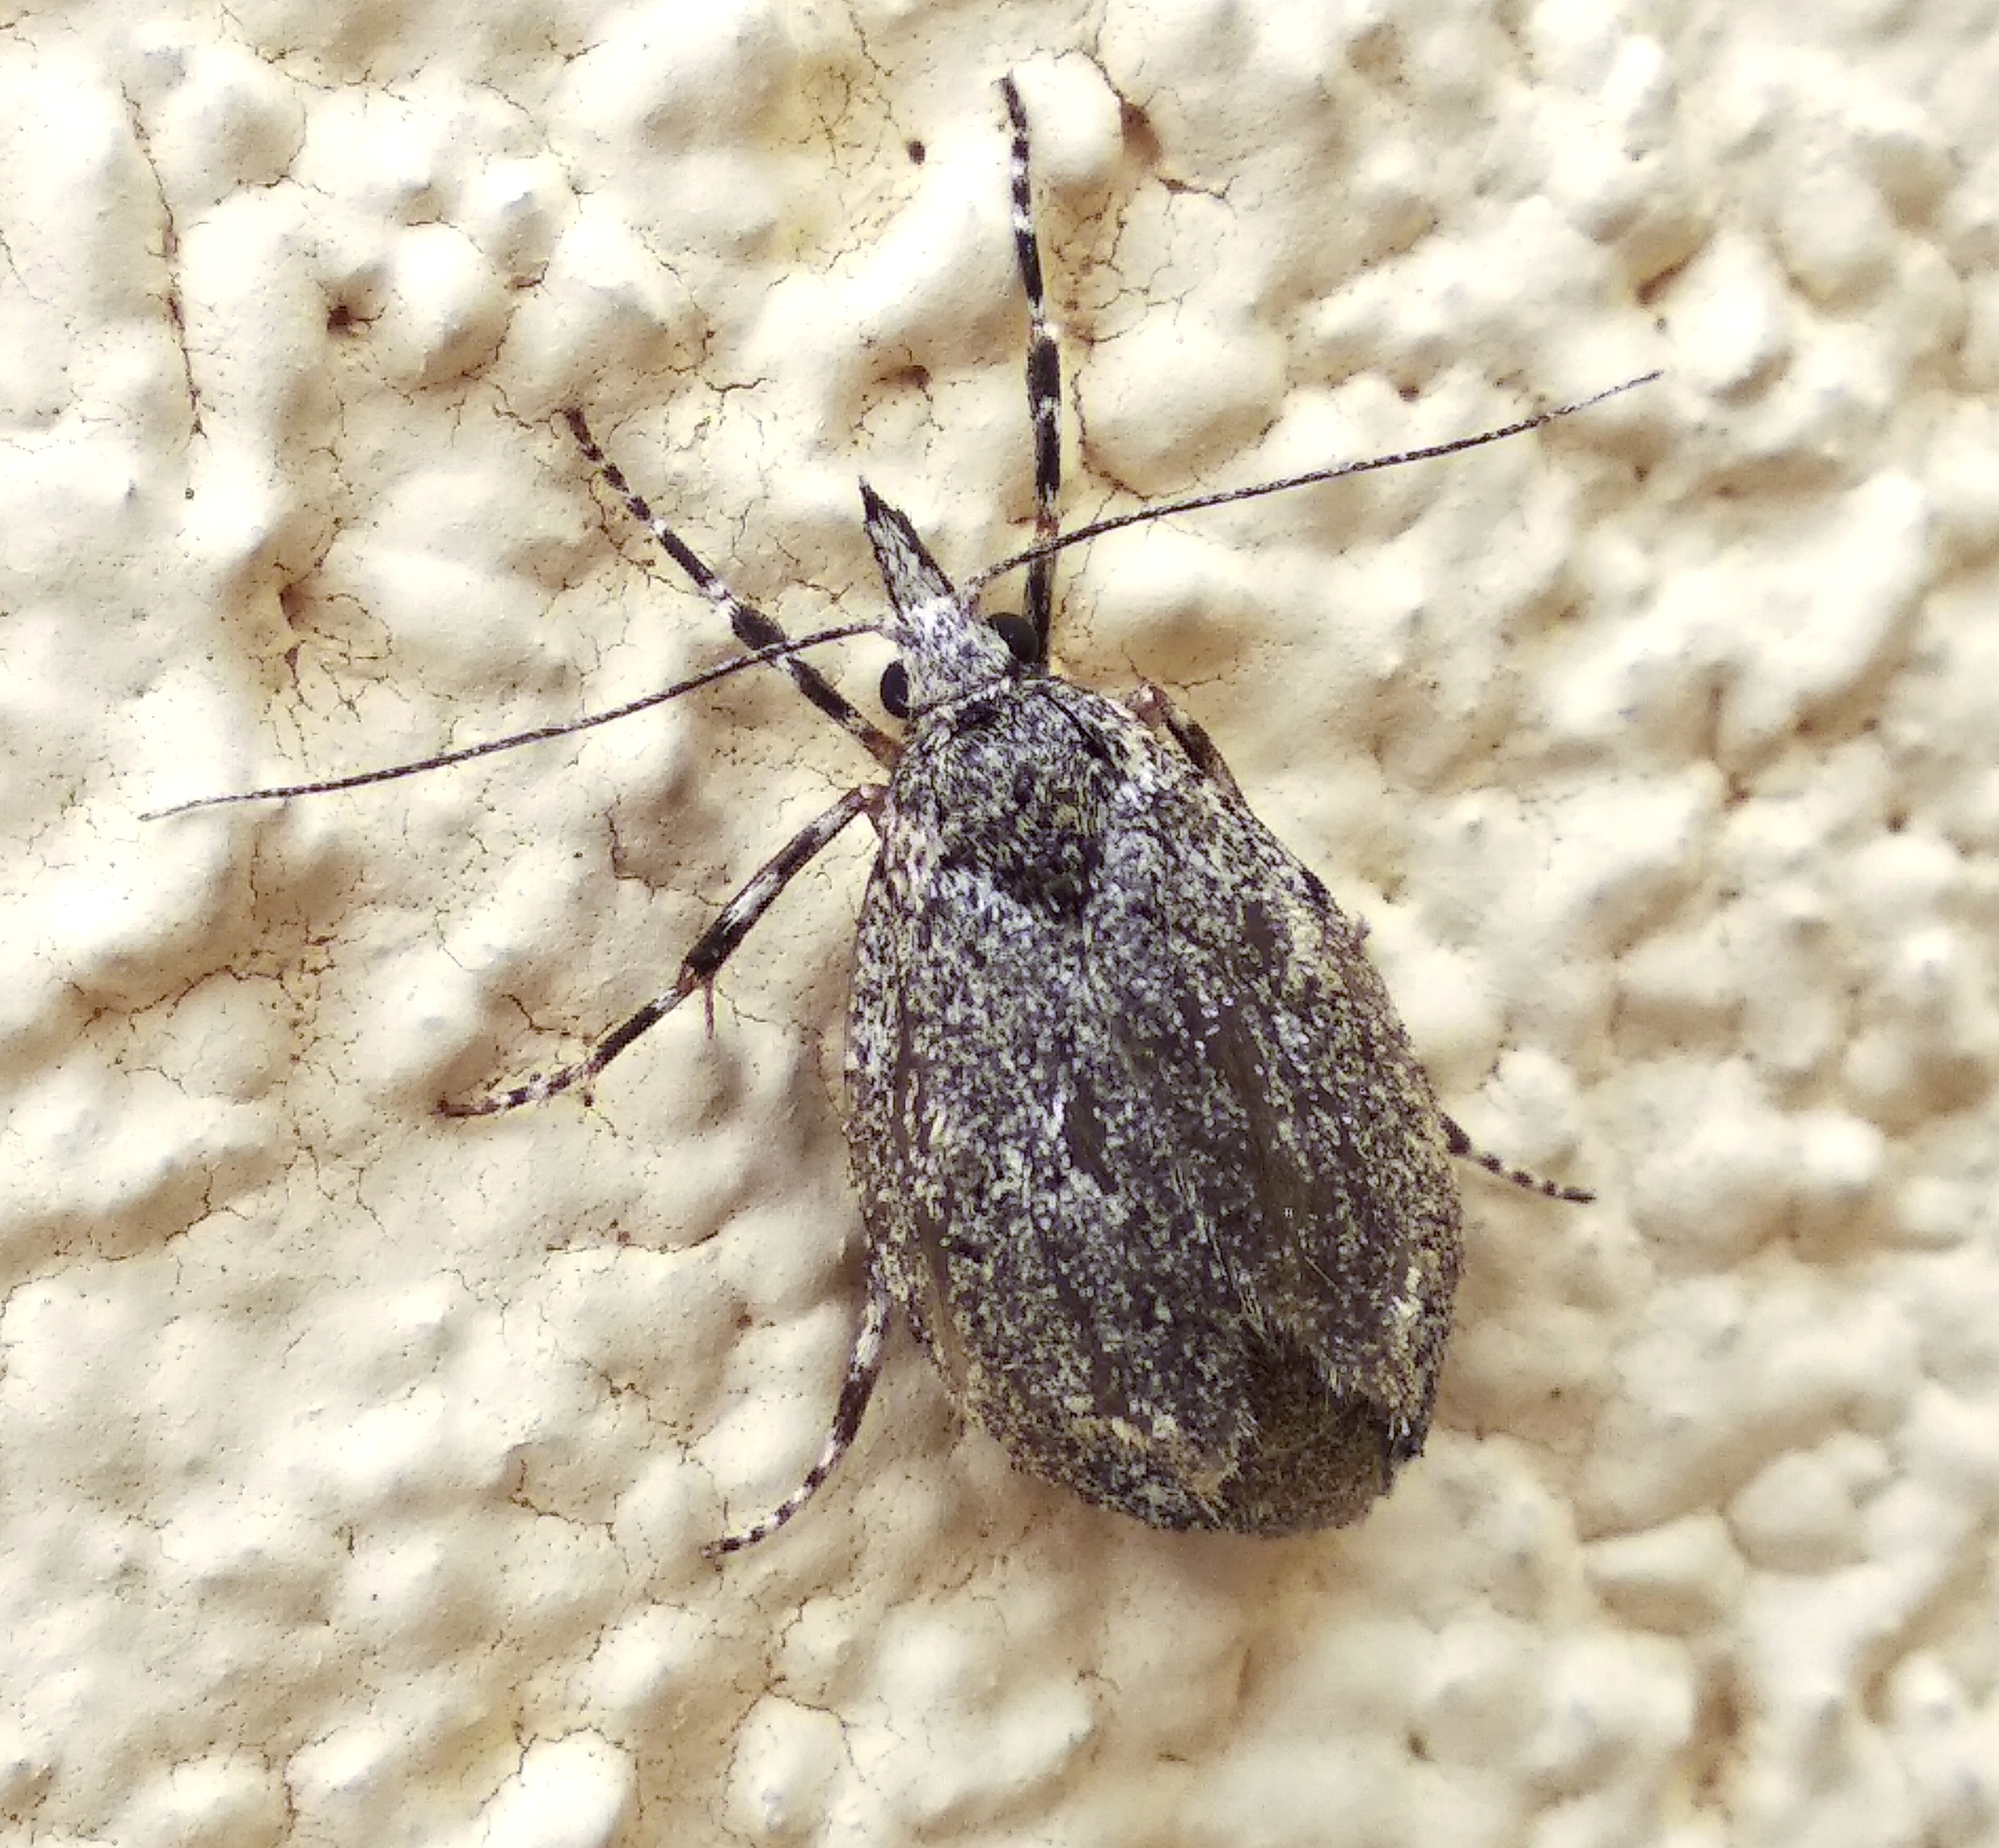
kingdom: Animalia
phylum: Arthropoda
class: Insecta
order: Lepidoptera
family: Lypusidae
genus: Diurnea
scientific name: Diurnea fagella
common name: March tubic
